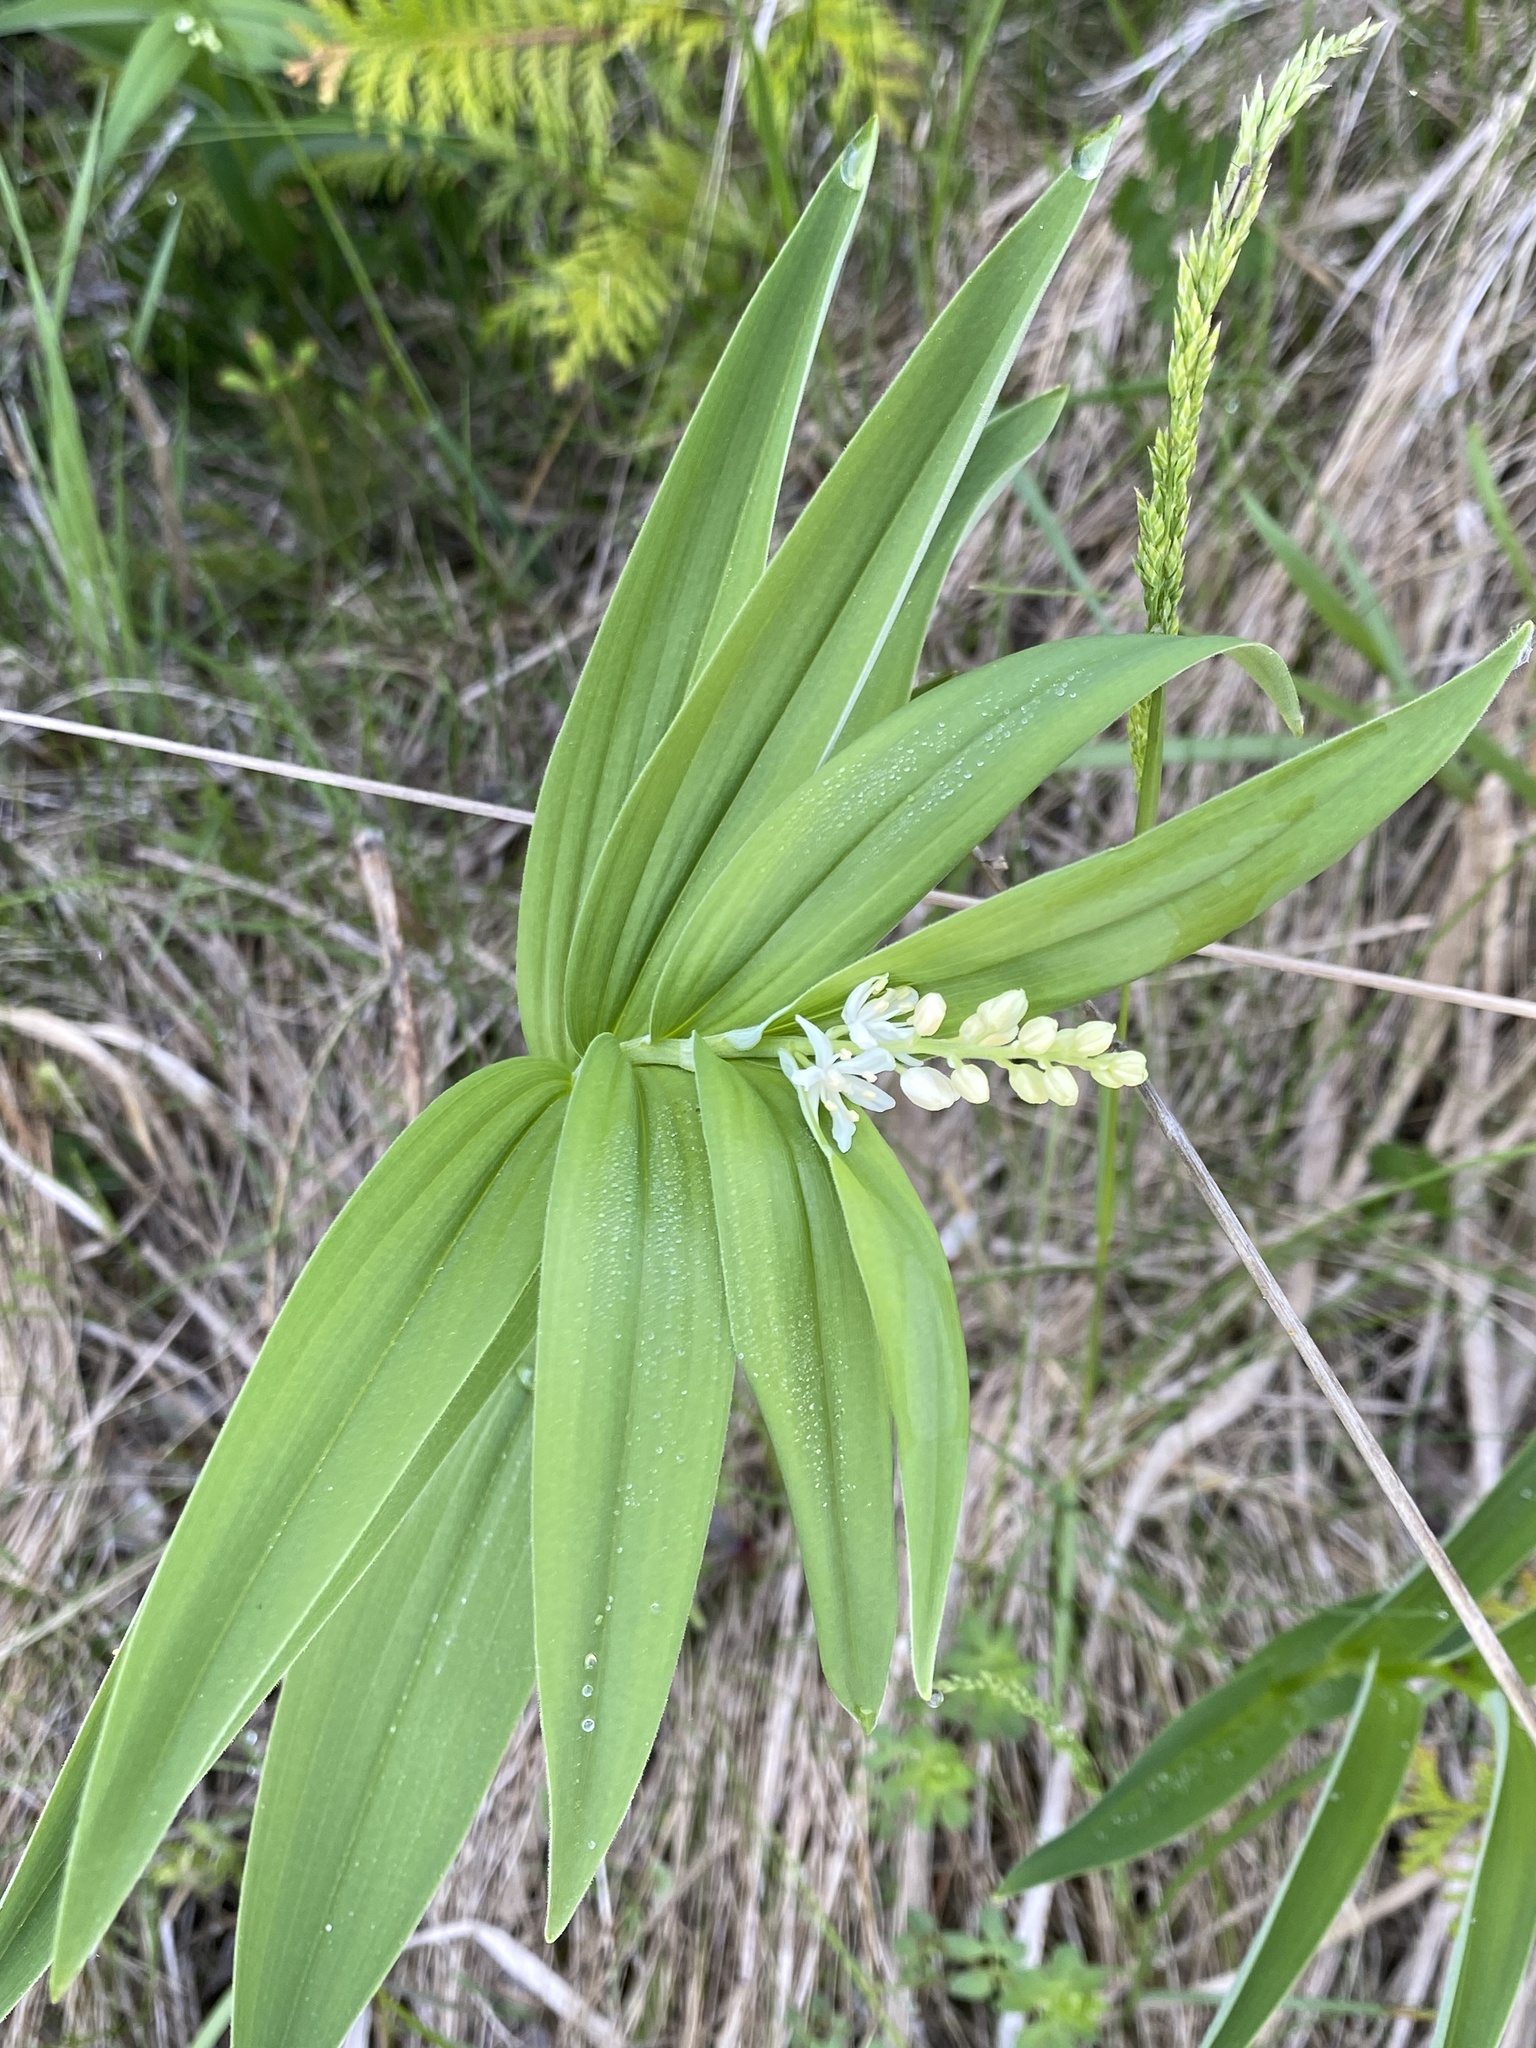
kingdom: Plantae
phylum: Tracheophyta
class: Liliopsida
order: Asparagales
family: Asparagaceae
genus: Maianthemum
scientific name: Maianthemum stellatum
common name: Little false solomon's seal
